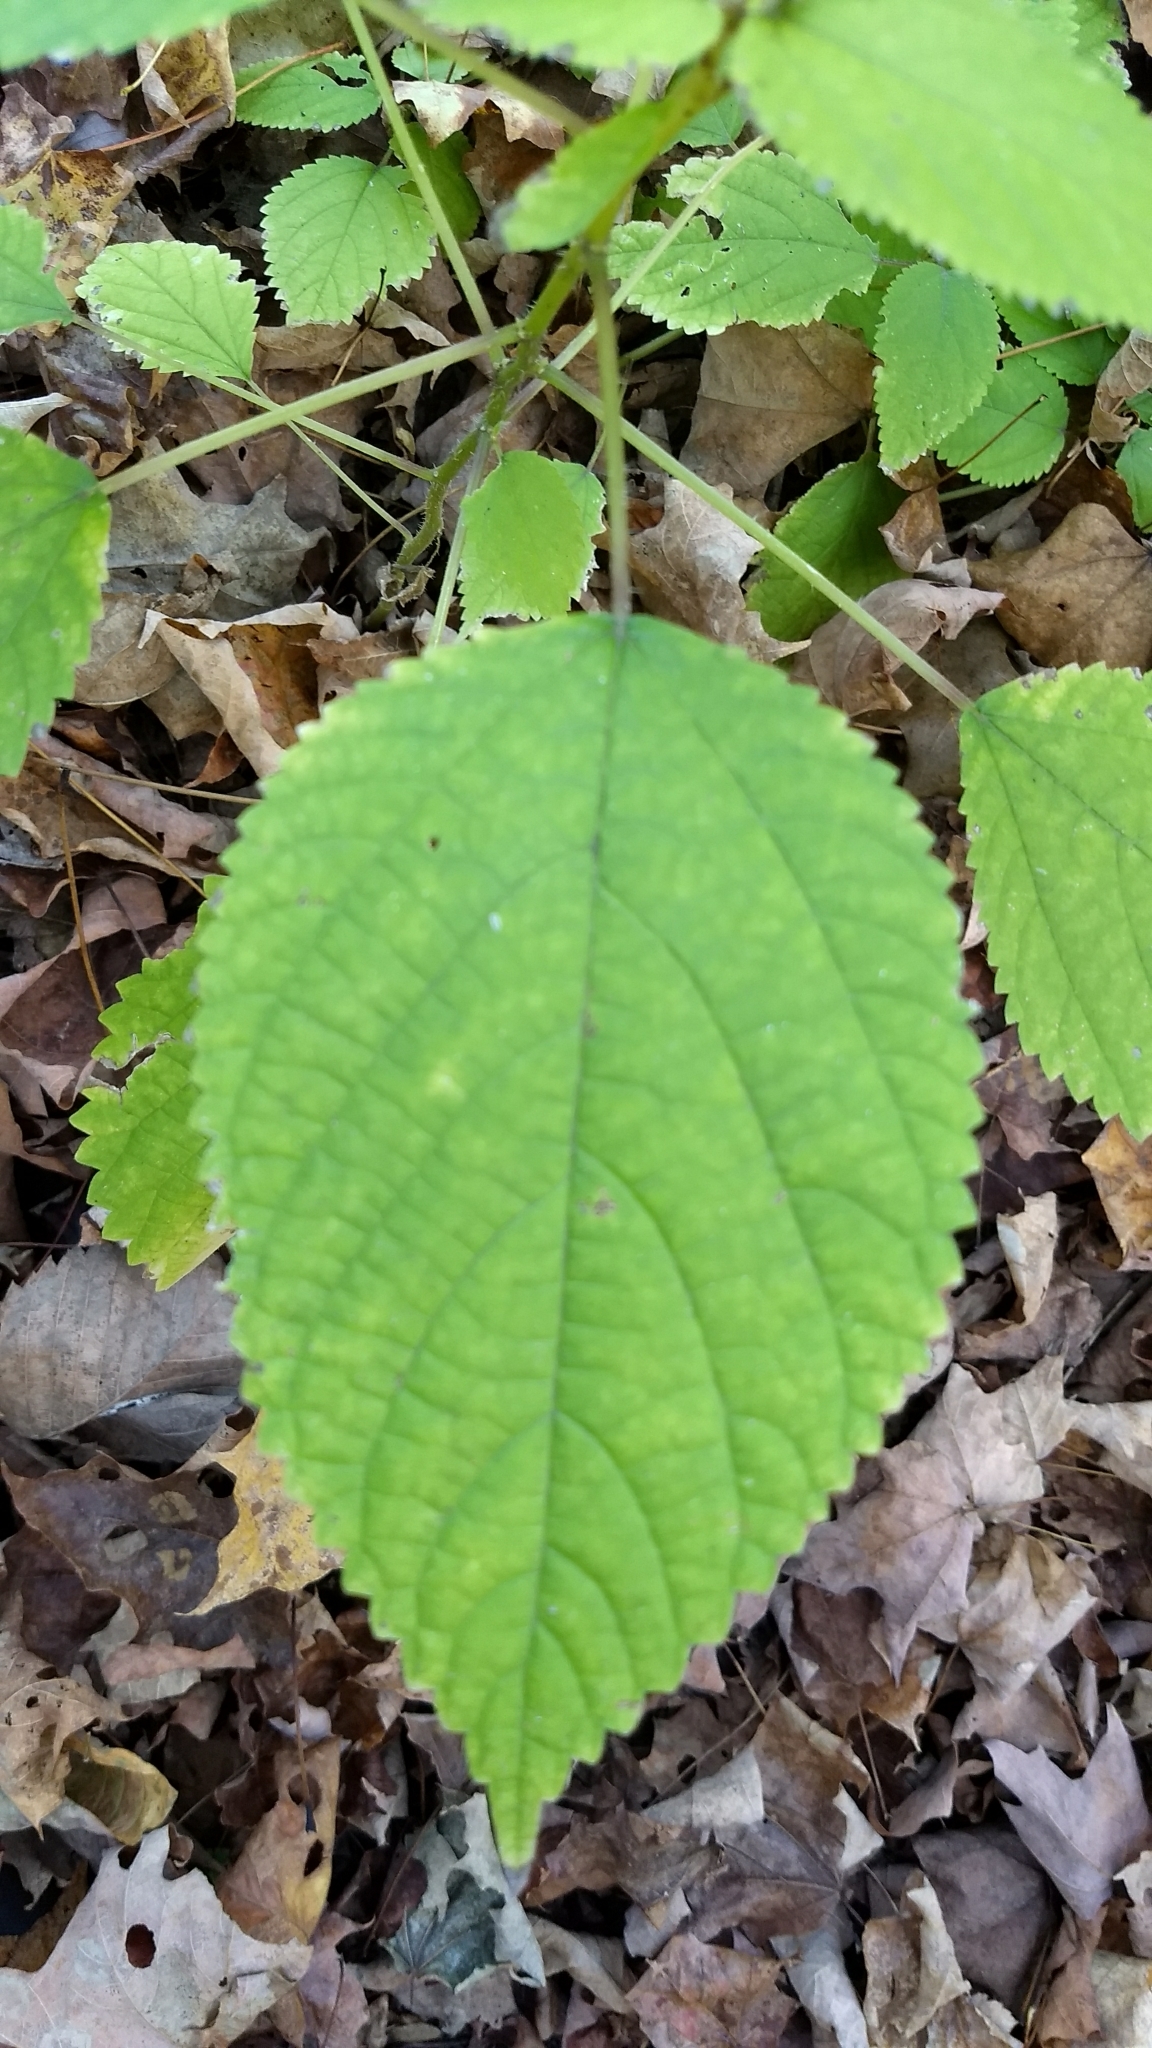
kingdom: Plantae
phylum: Tracheophyta
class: Magnoliopsida
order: Rosales
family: Urticaceae
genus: Laportea
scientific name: Laportea canadensis
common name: Canada nettle
